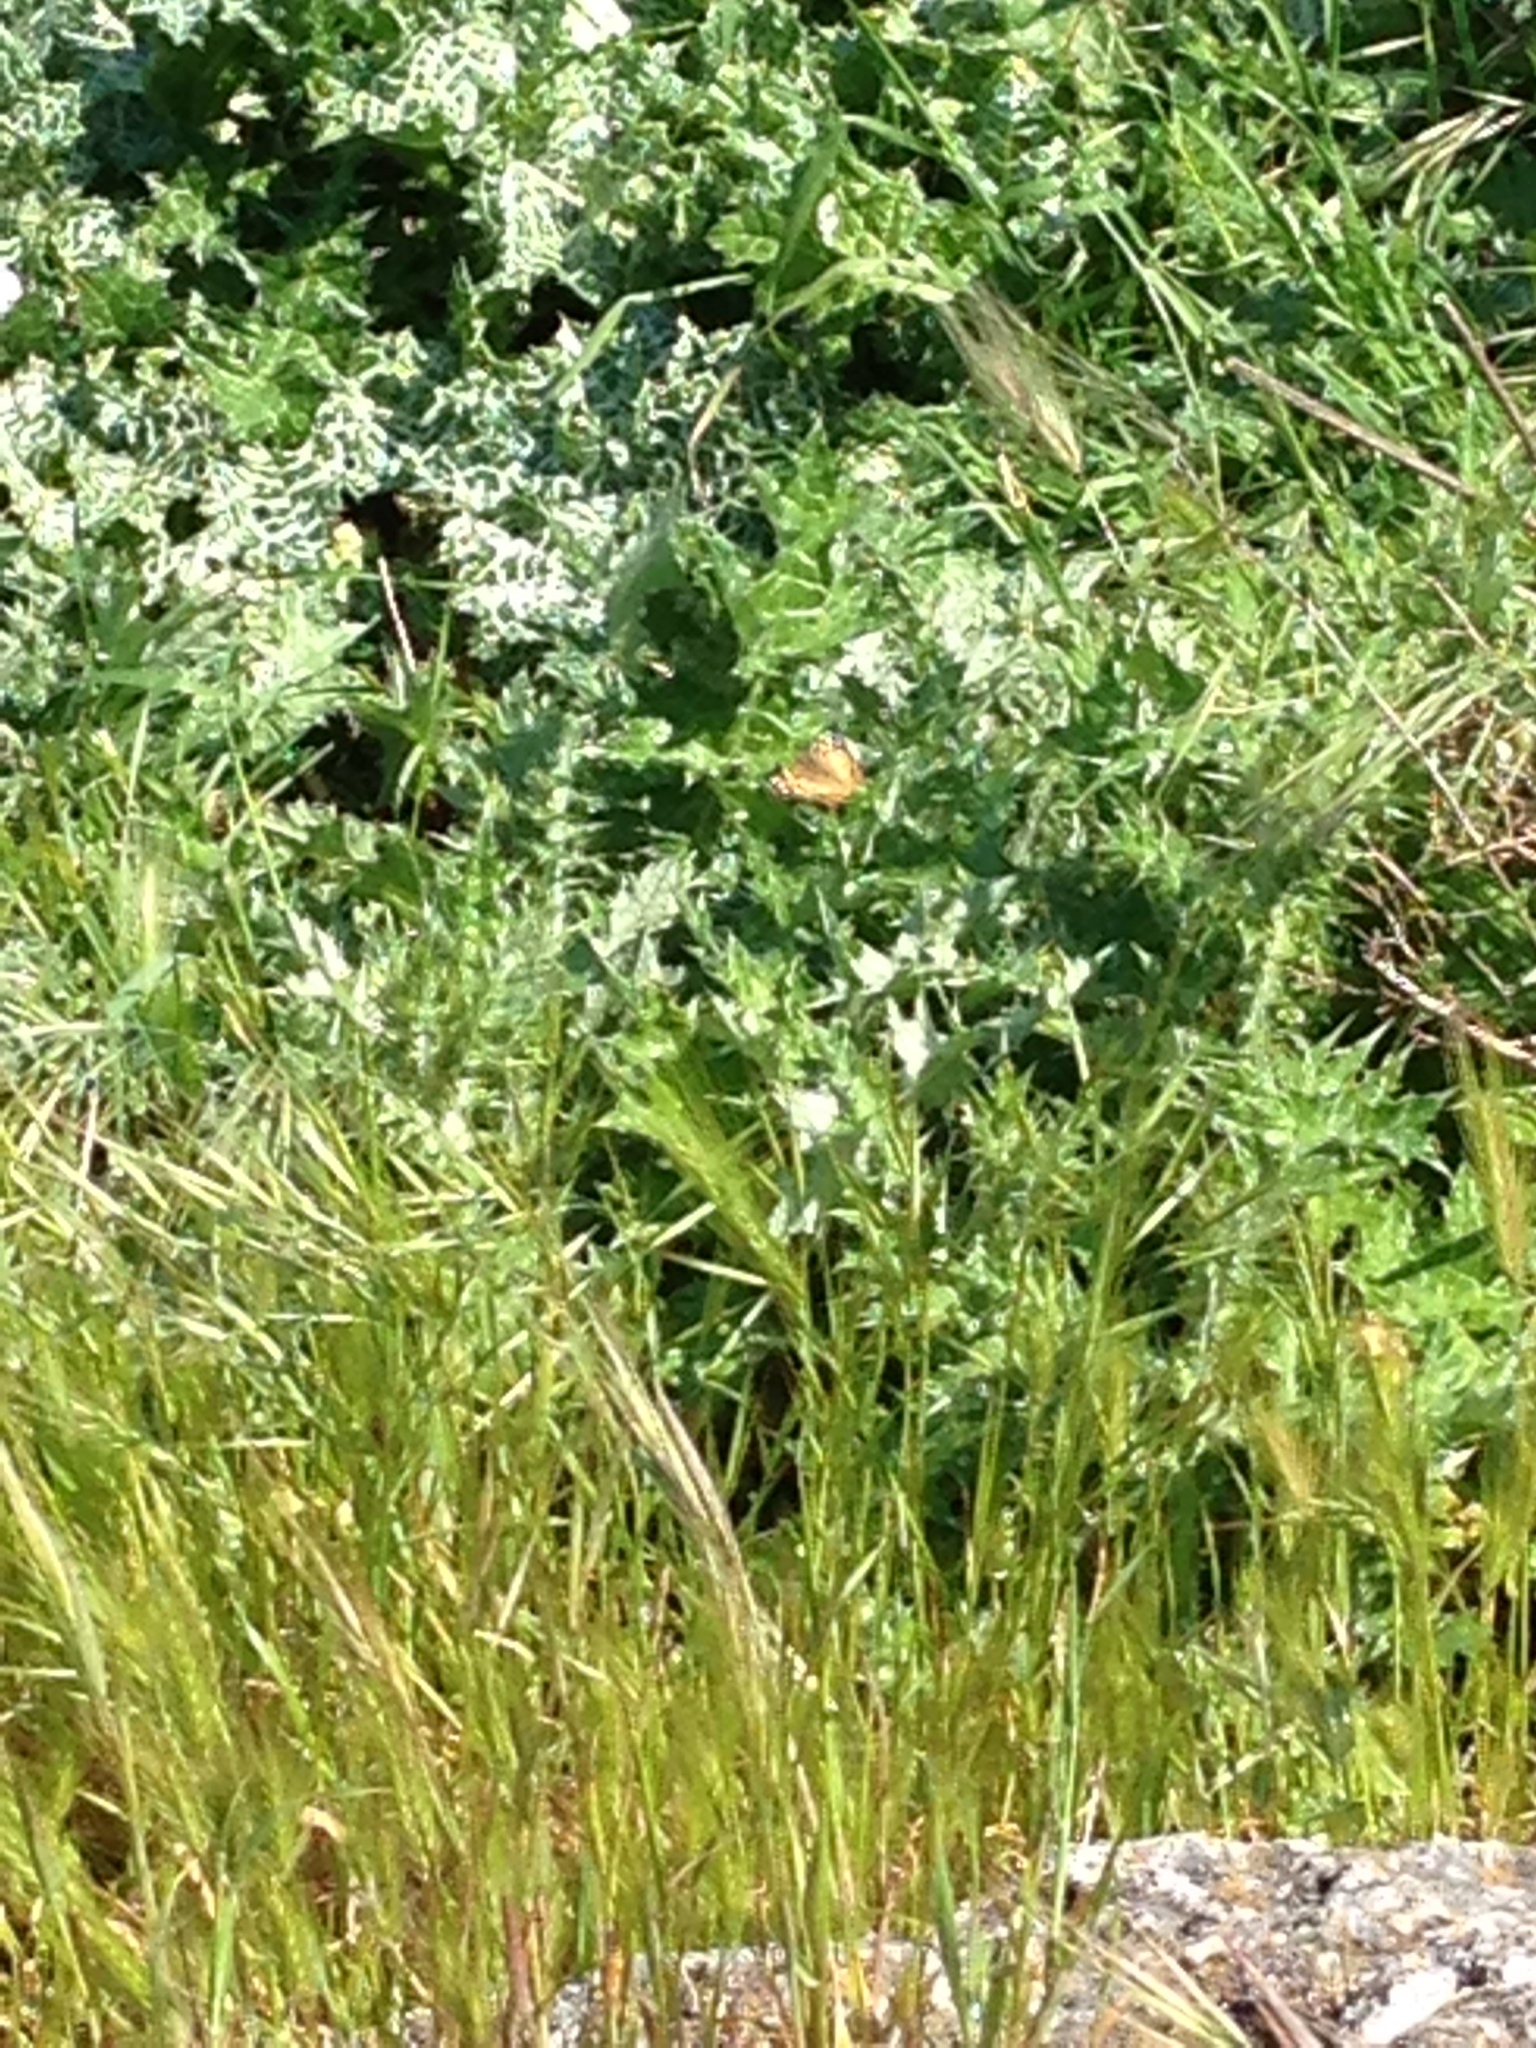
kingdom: Animalia
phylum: Arthropoda
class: Insecta
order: Lepidoptera
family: Nymphalidae
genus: Vanessa
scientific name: Vanessa virginiensis
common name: American lady
